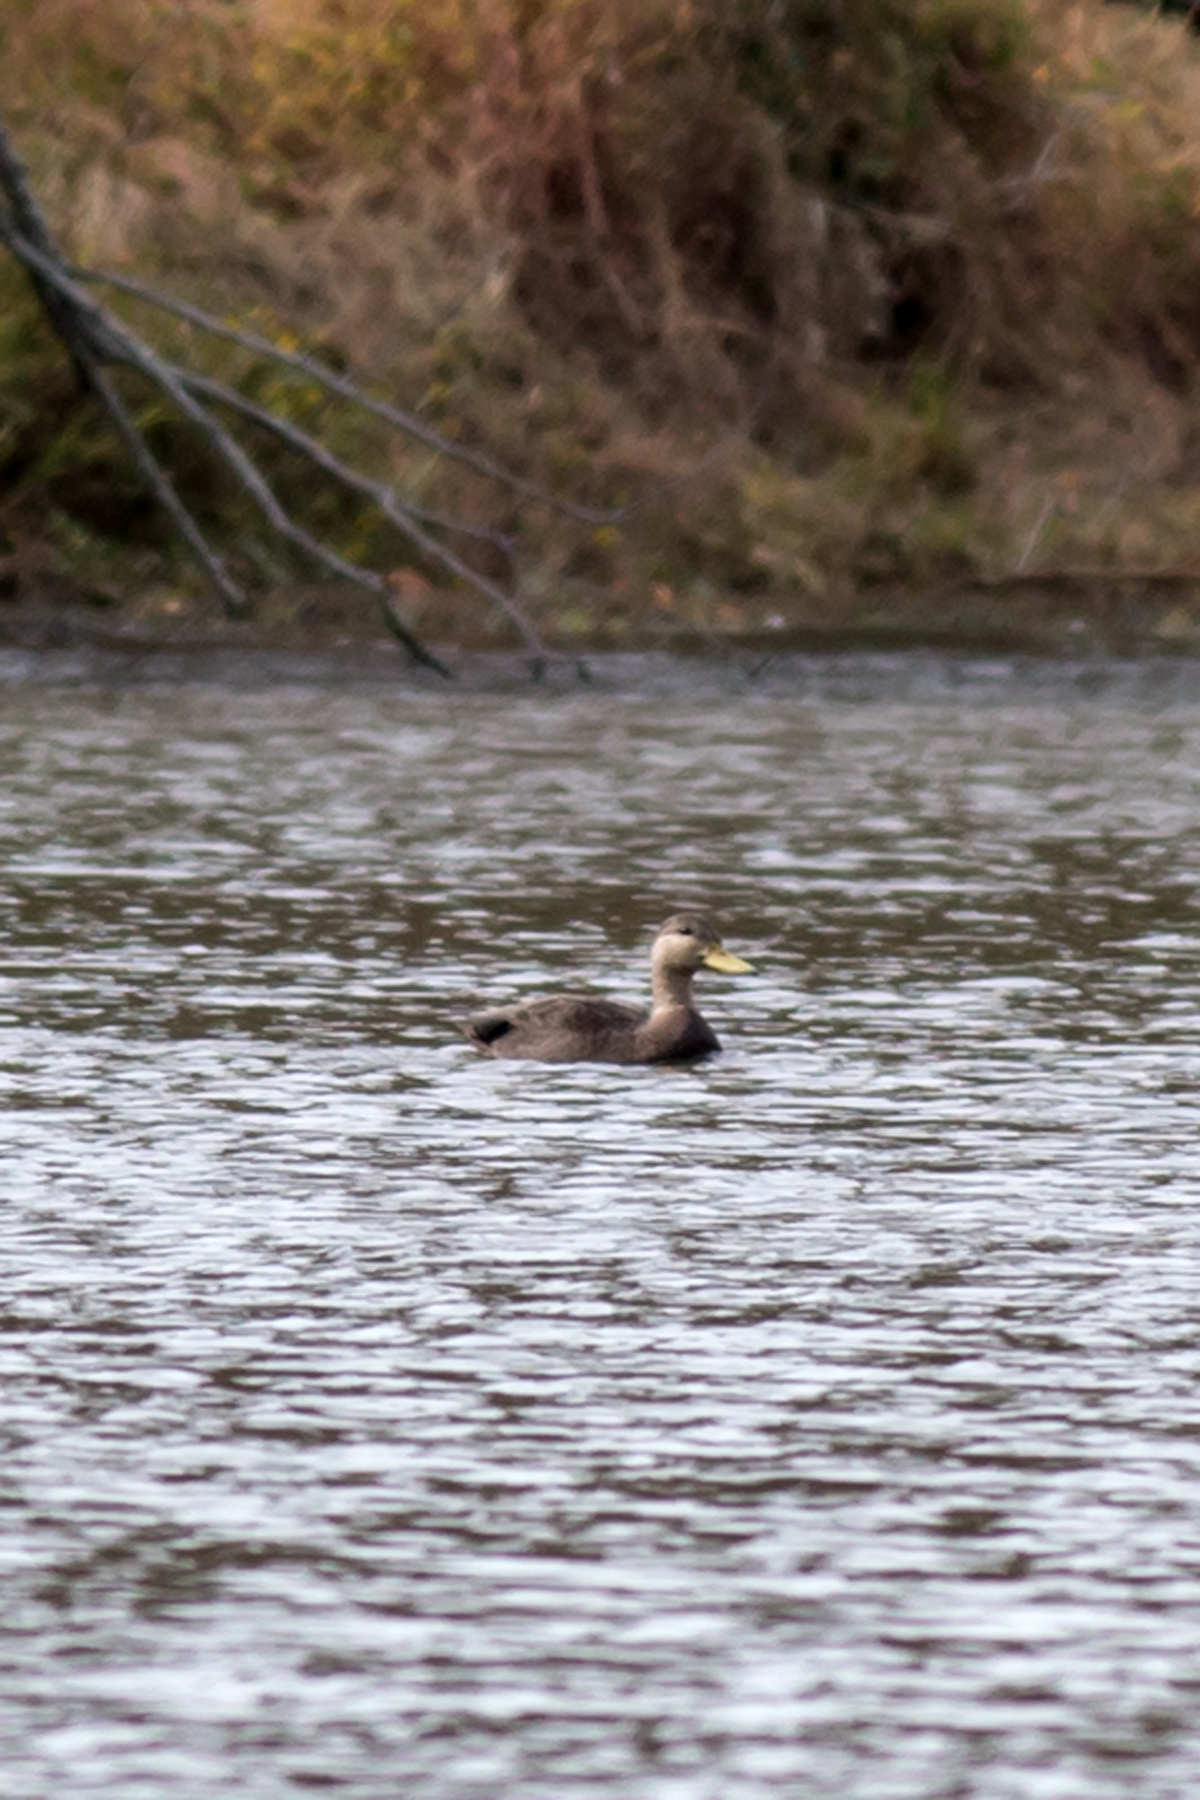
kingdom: Animalia
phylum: Chordata
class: Aves
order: Anseriformes
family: Anatidae
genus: Anas
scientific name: Anas rubripes
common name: American black duck
